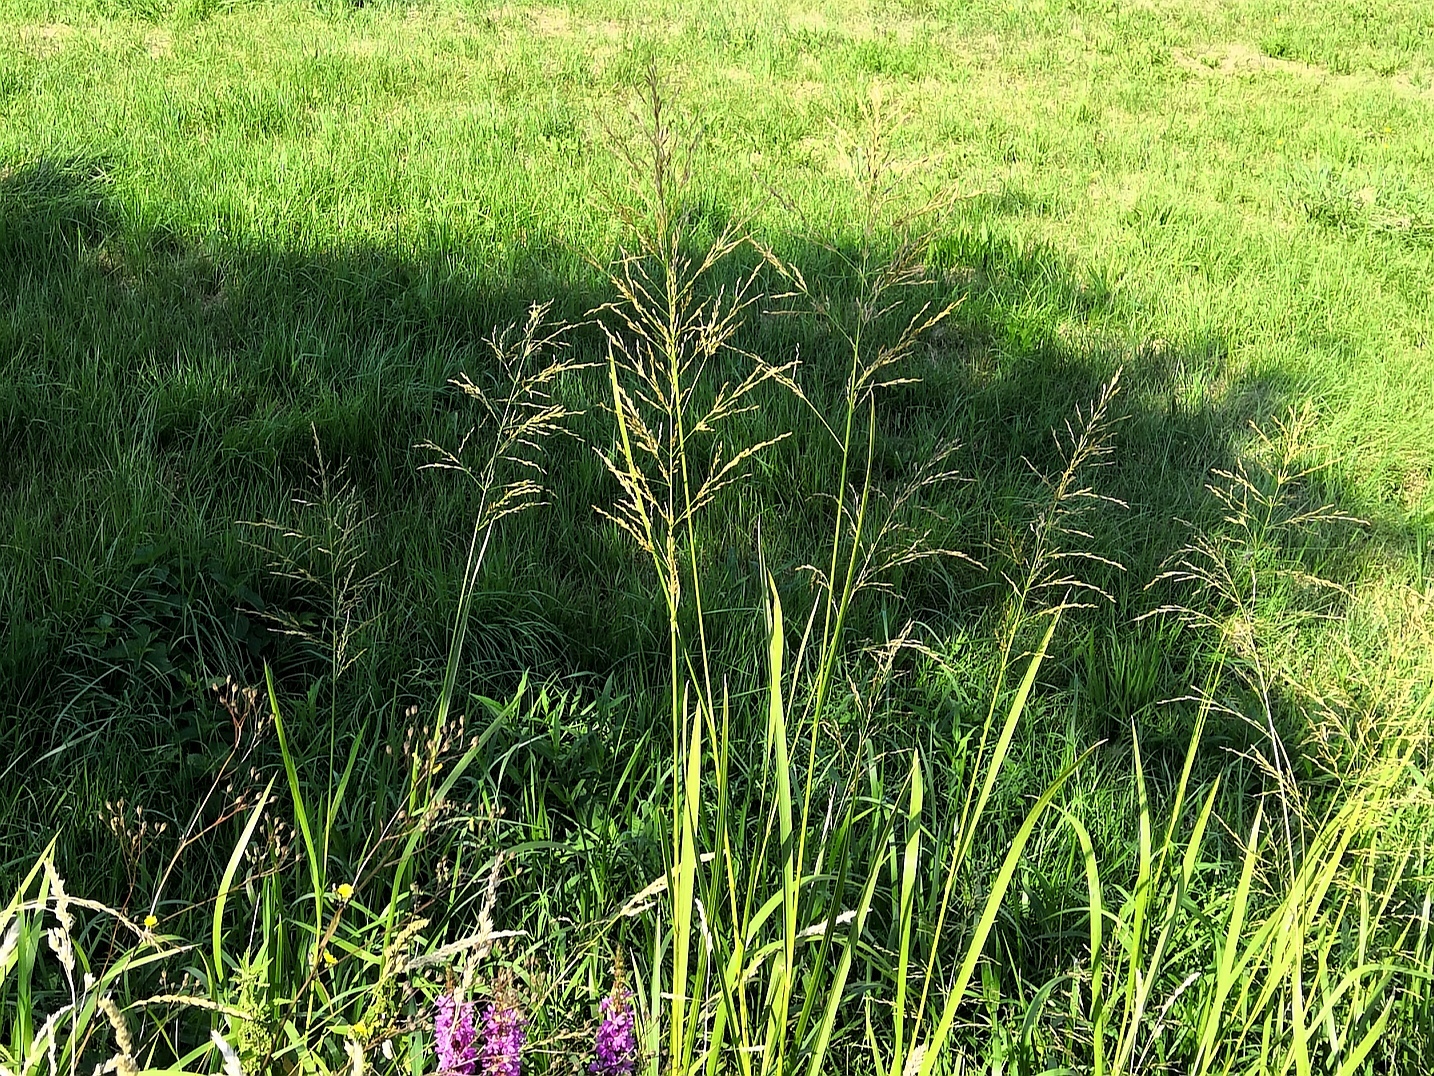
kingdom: Plantae
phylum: Tracheophyta
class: Liliopsida
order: Poales
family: Poaceae
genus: Glyceria
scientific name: Glyceria maxima
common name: Reed mannagrass
